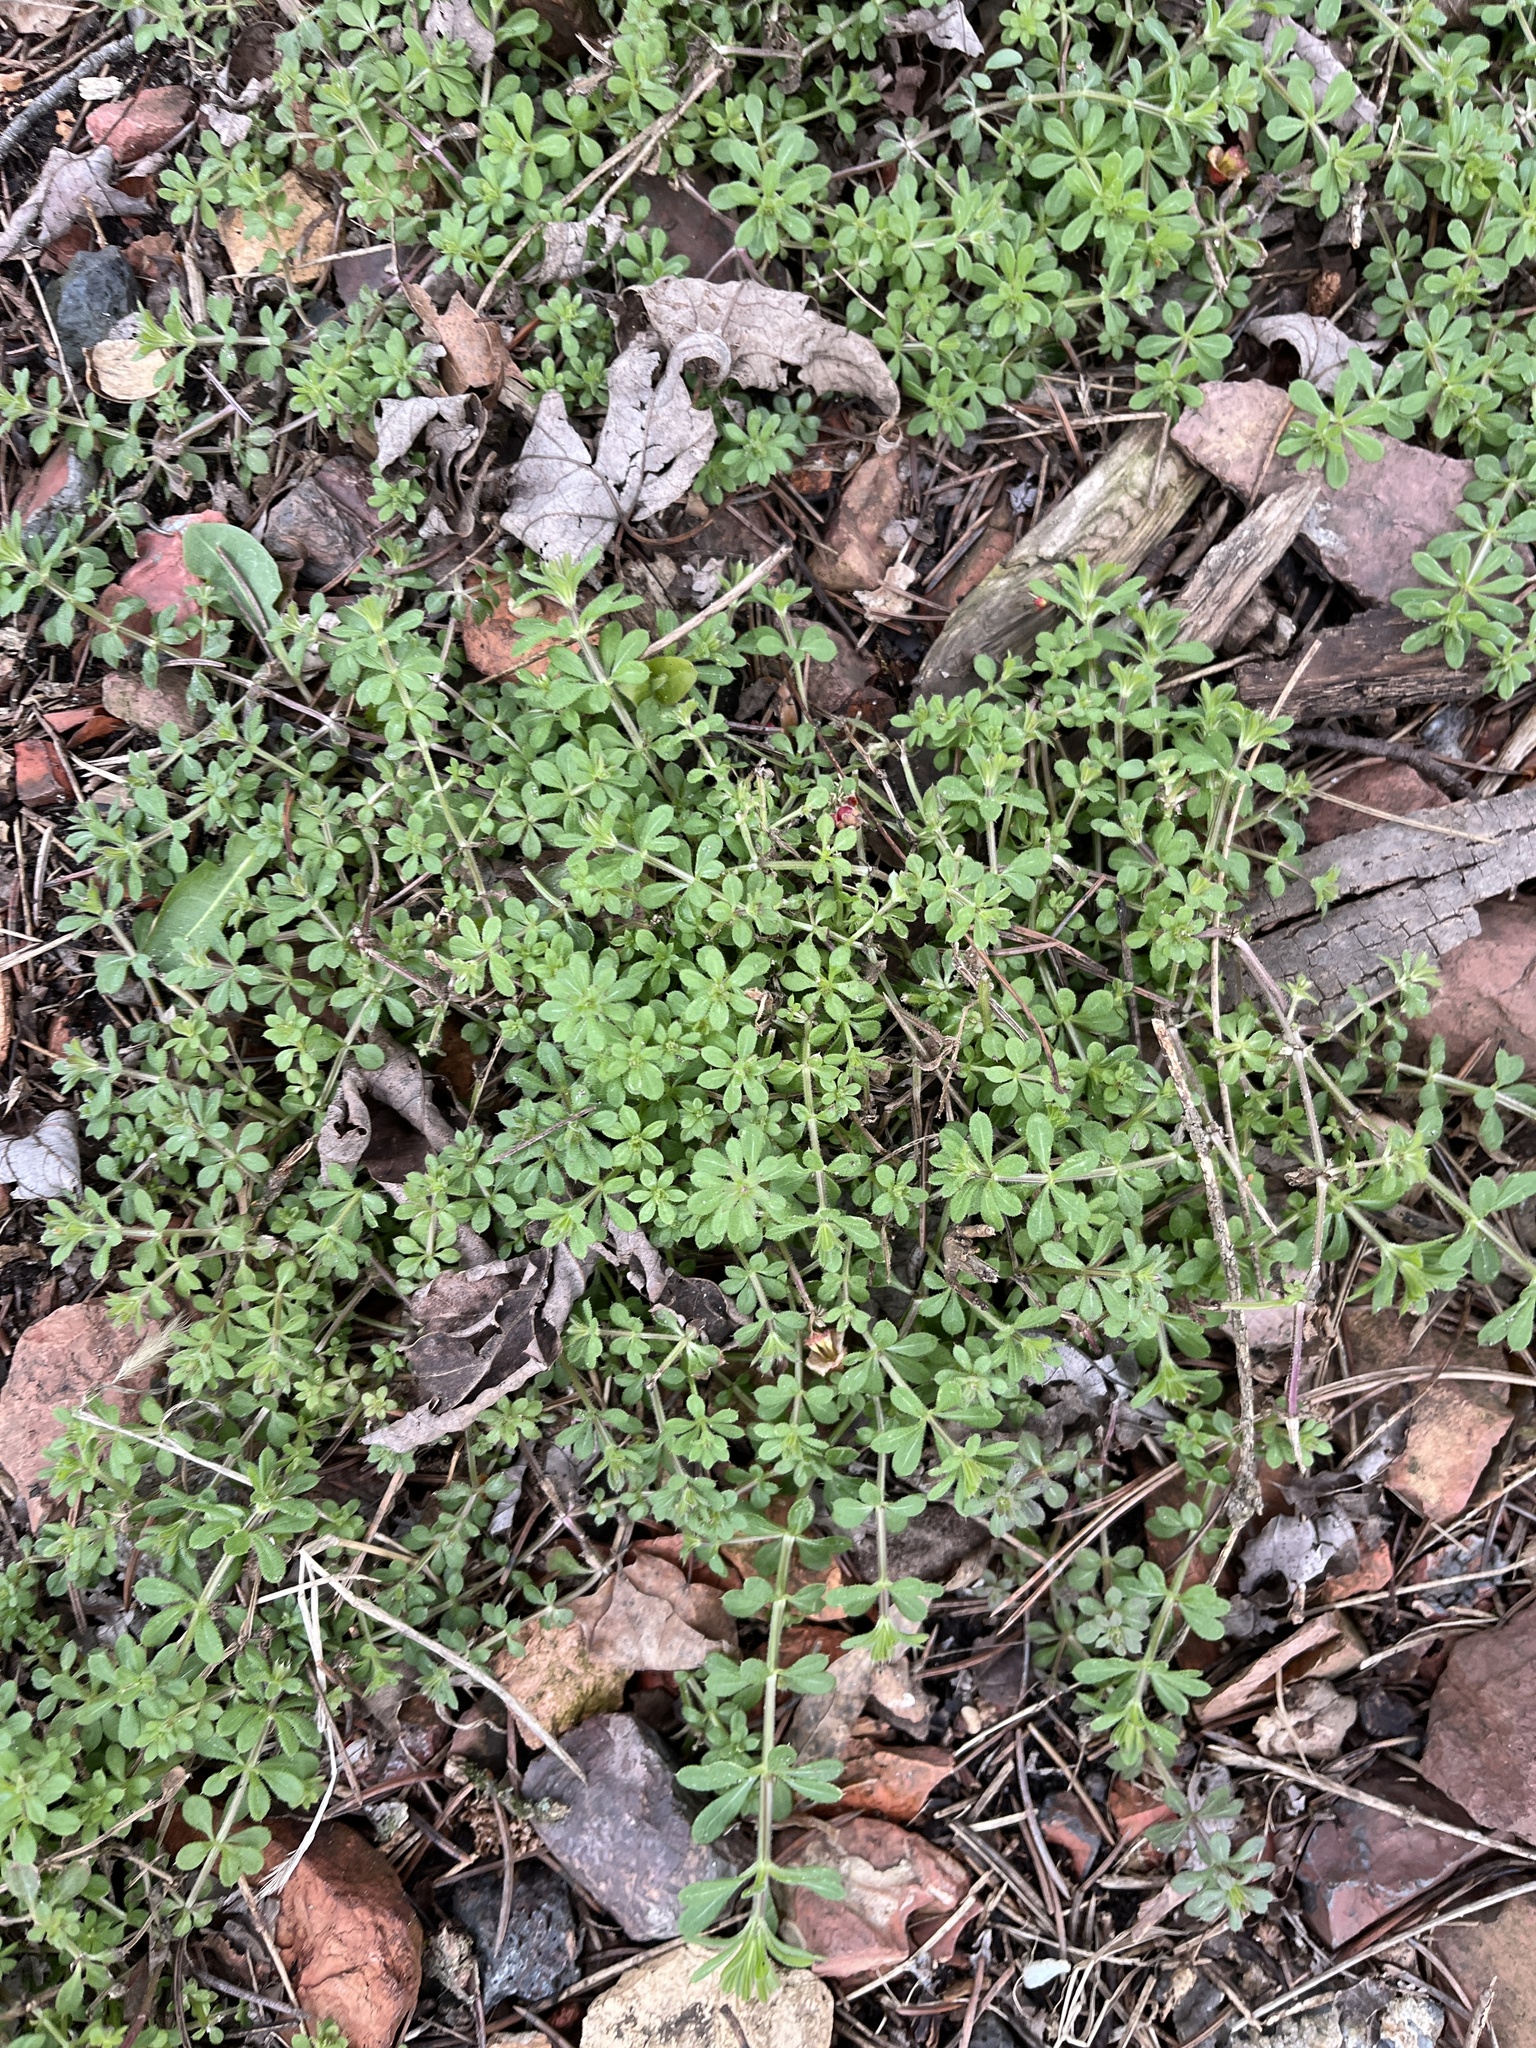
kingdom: Plantae
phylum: Tracheophyta
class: Magnoliopsida
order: Gentianales
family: Rubiaceae
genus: Galium
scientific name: Galium aparine
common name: Cleavers
